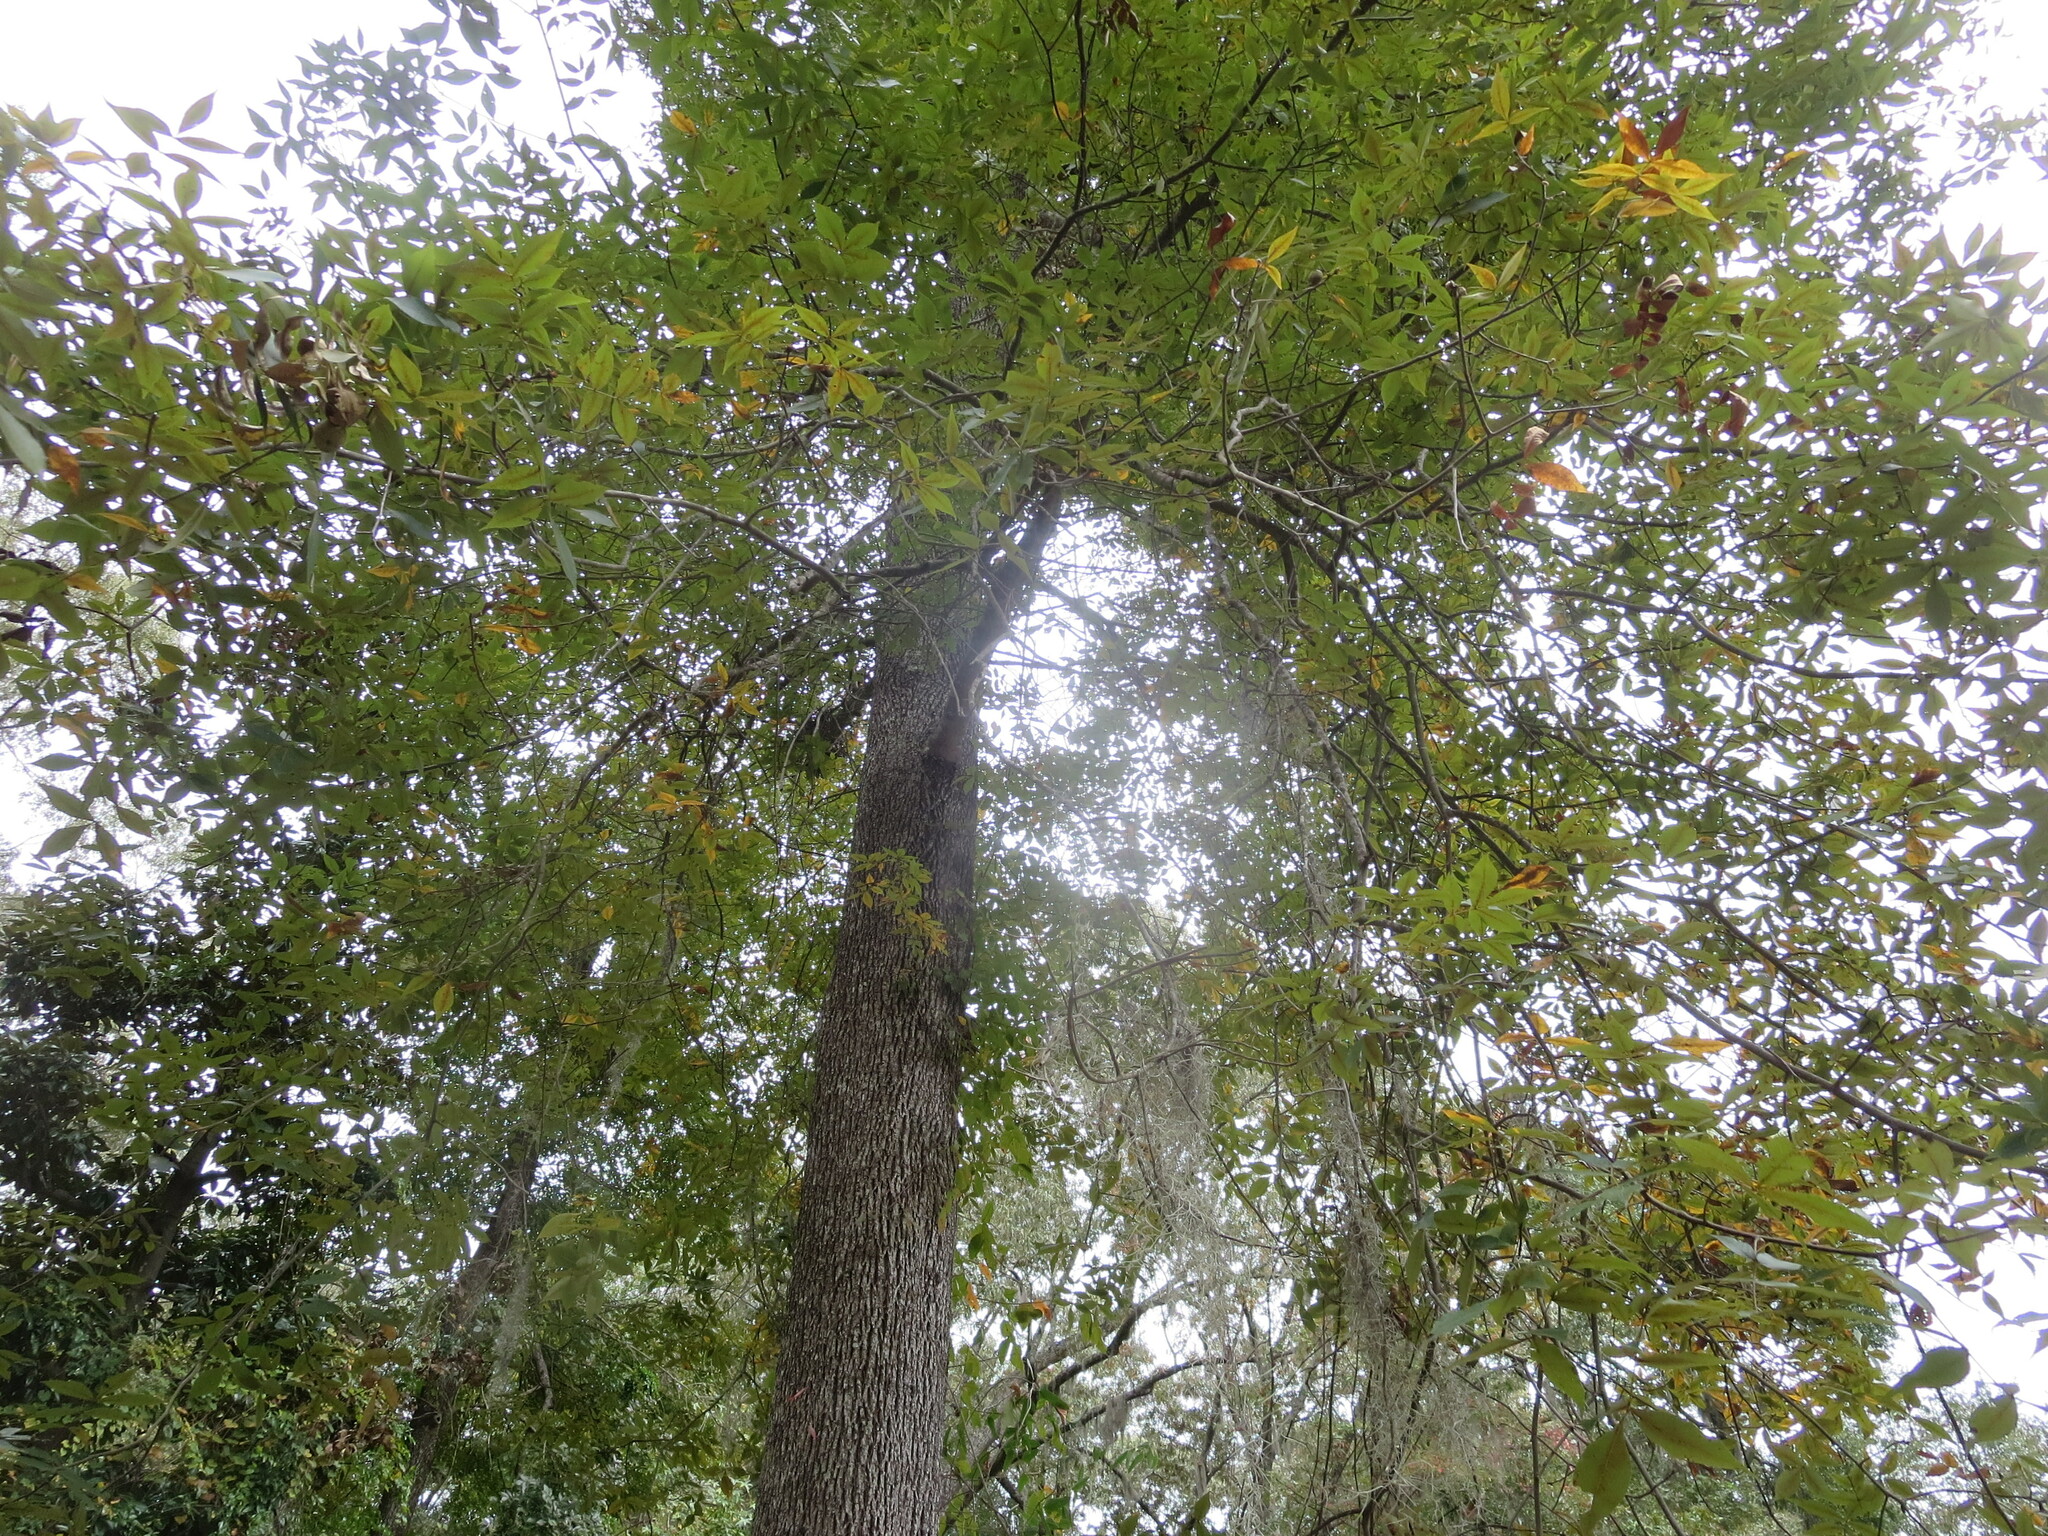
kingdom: Plantae
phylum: Tracheophyta
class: Magnoliopsida
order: Fagales
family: Juglandaceae
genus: Carya
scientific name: Carya glabra
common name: Pignut hickory
